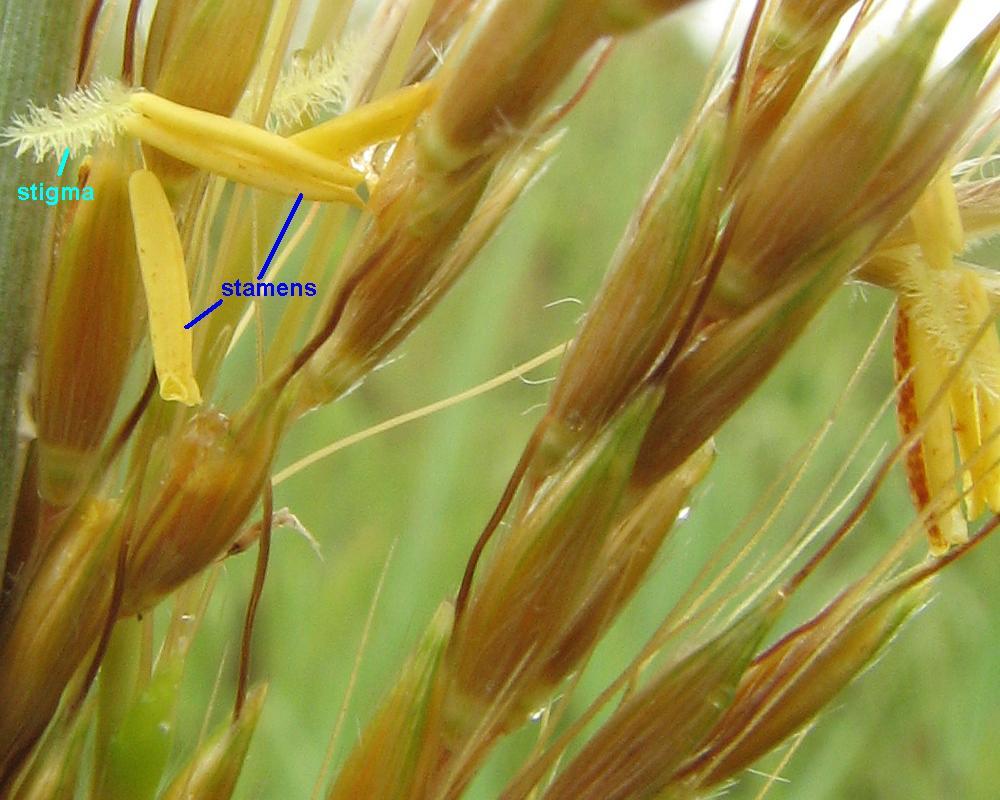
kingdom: Plantae
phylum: Tracheophyta
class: Liliopsida
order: Poales
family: Poaceae
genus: Sorghastrum
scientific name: Sorghastrum nutans
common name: Indian grass
